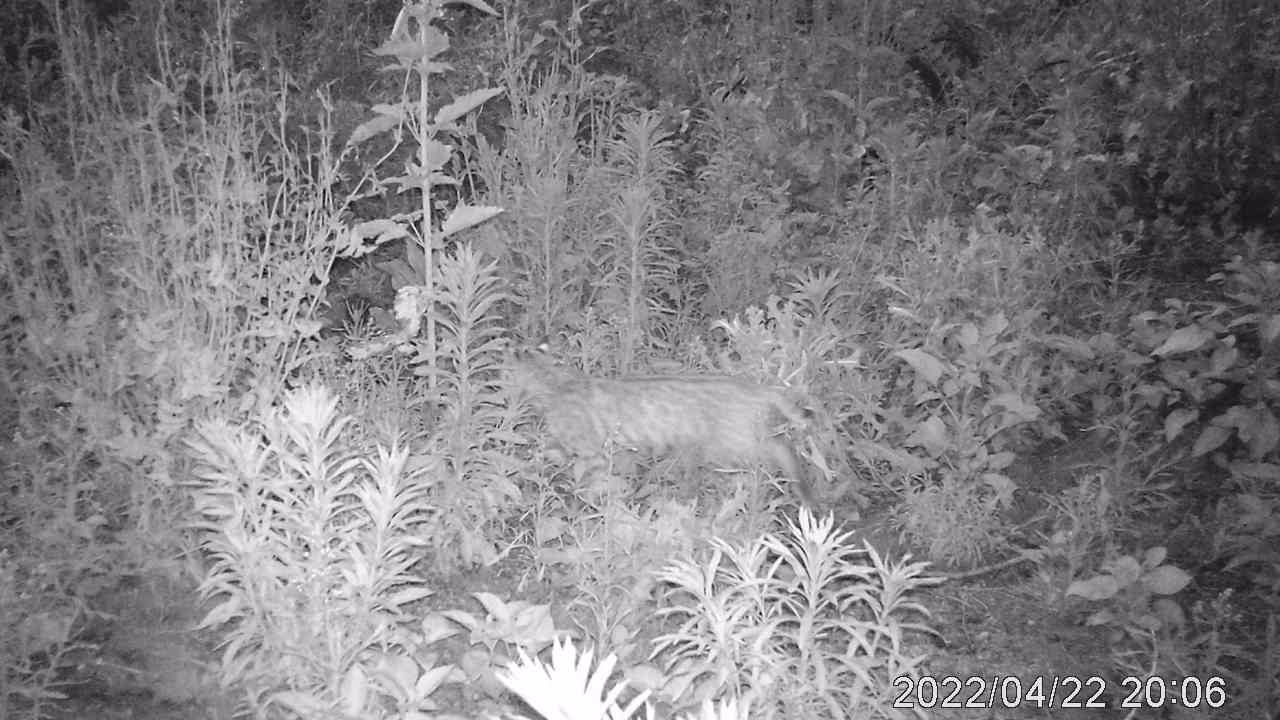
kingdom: Animalia
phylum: Chordata
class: Mammalia
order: Carnivora
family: Felidae
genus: Lynx
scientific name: Lynx rufus
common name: Bobcat
